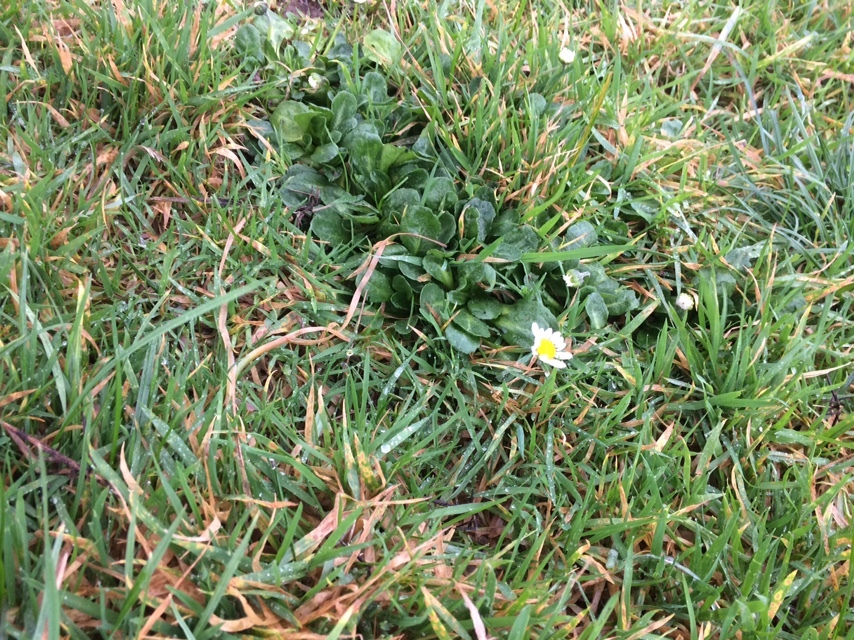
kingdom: Plantae
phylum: Tracheophyta
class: Magnoliopsida
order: Asterales
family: Asteraceae
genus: Bellis
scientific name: Bellis perennis
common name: Lawndaisy
